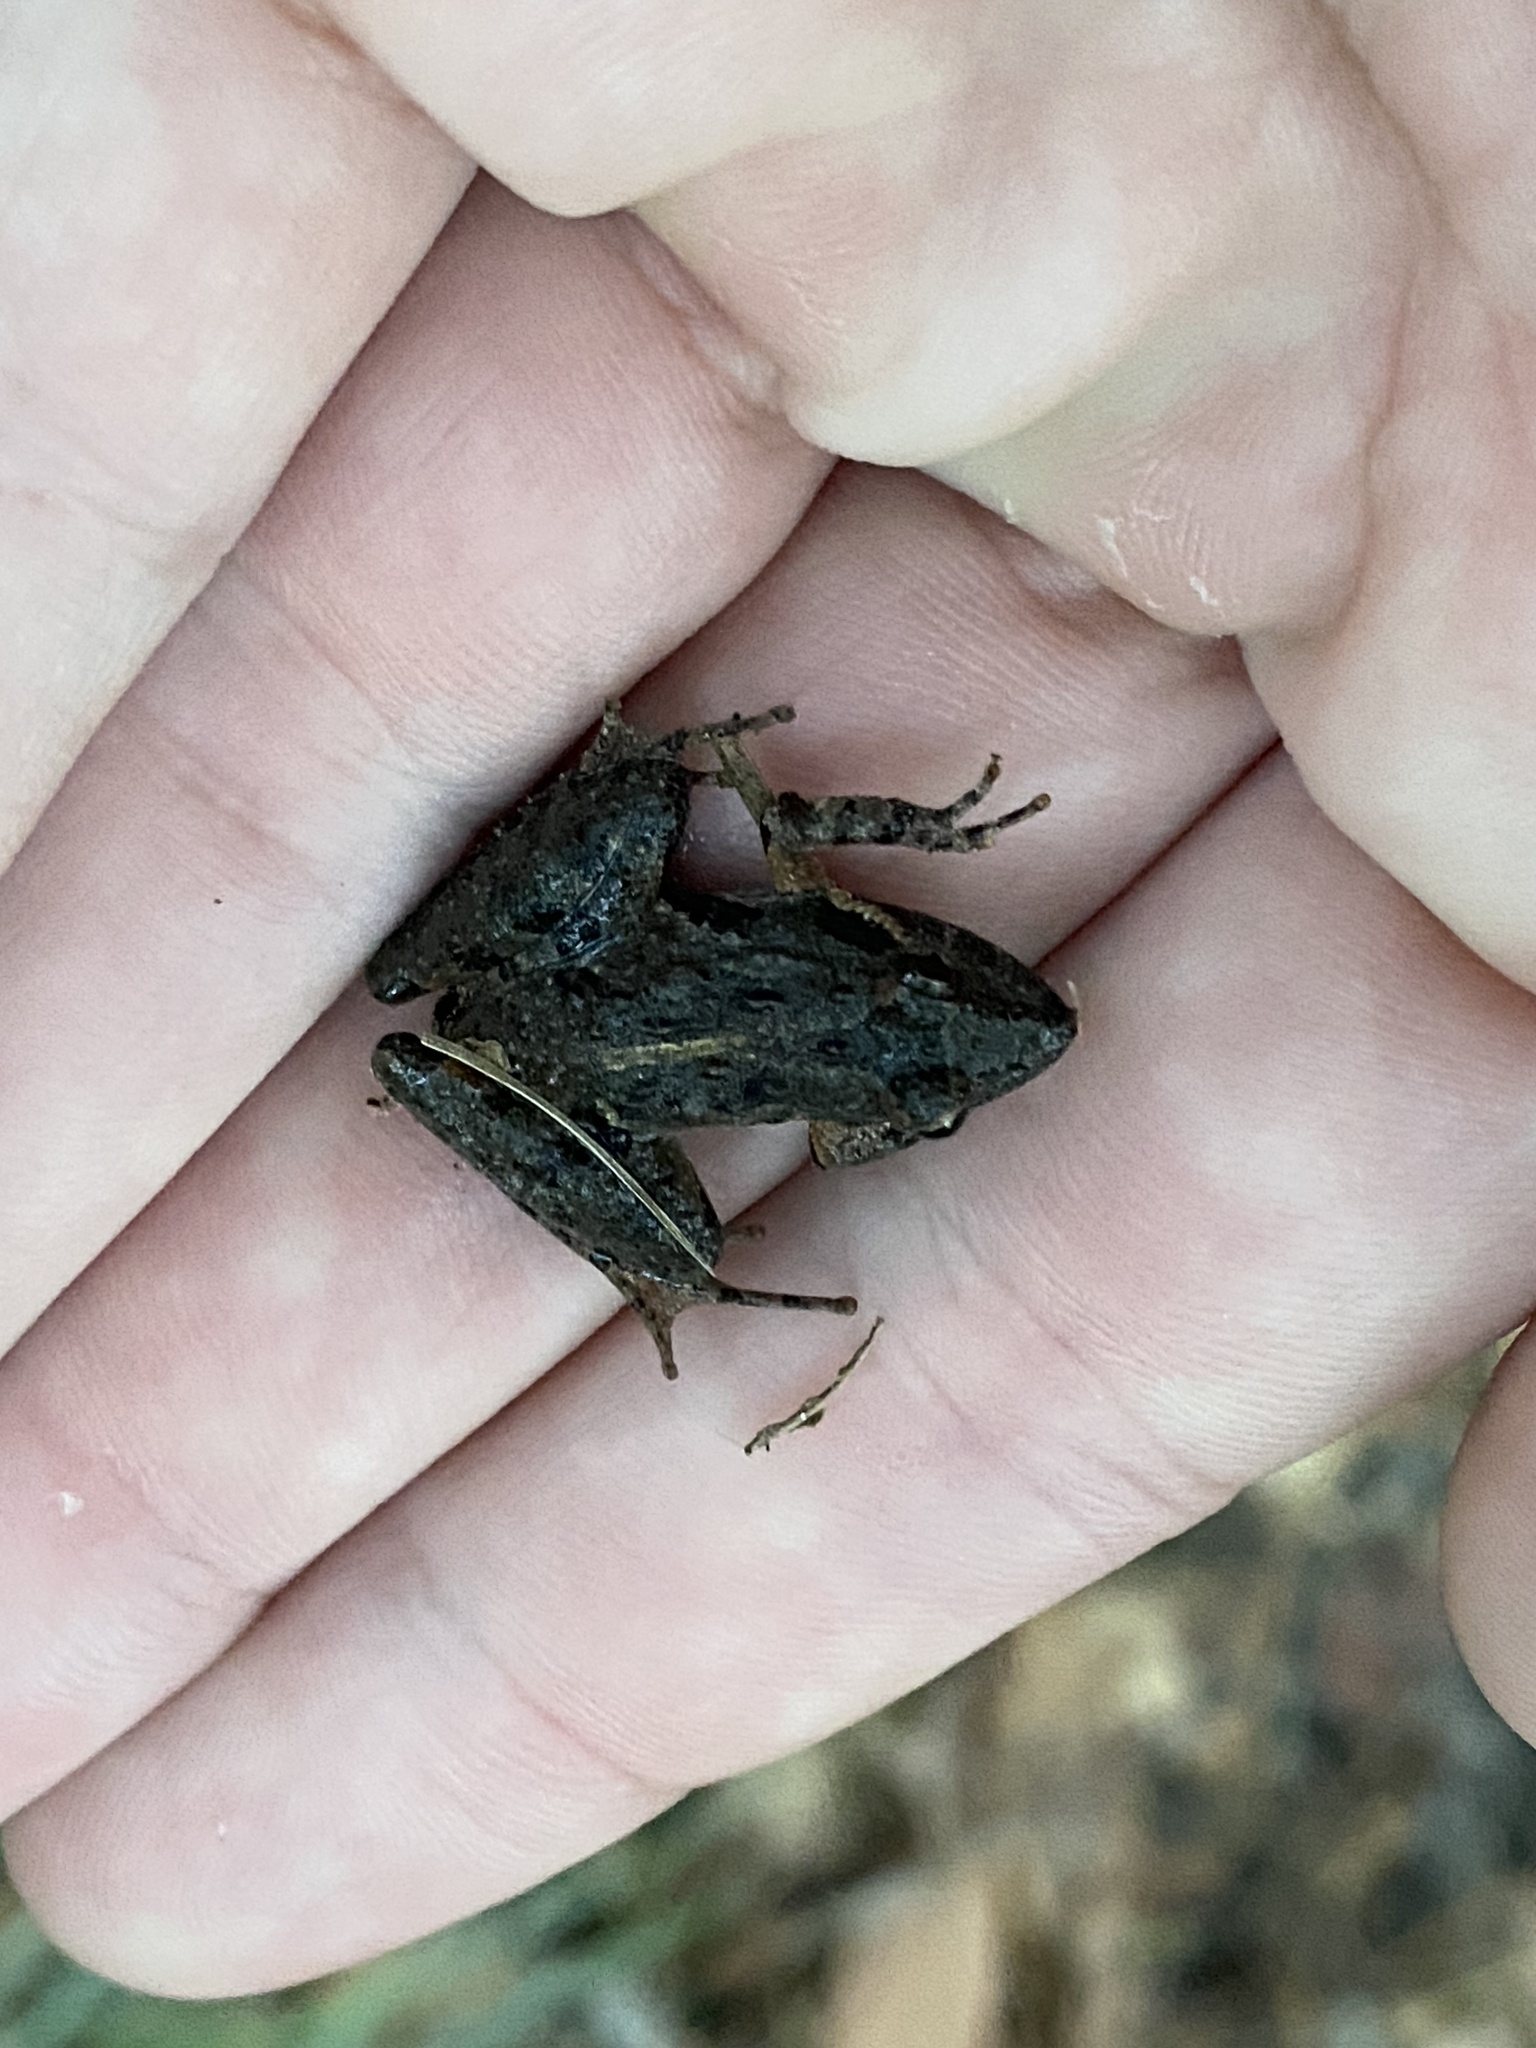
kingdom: Animalia
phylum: Chordata
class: Amphibia
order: Anura
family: Hylidae
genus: Acris
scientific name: Acris gryllus
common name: Southern cricket frog
